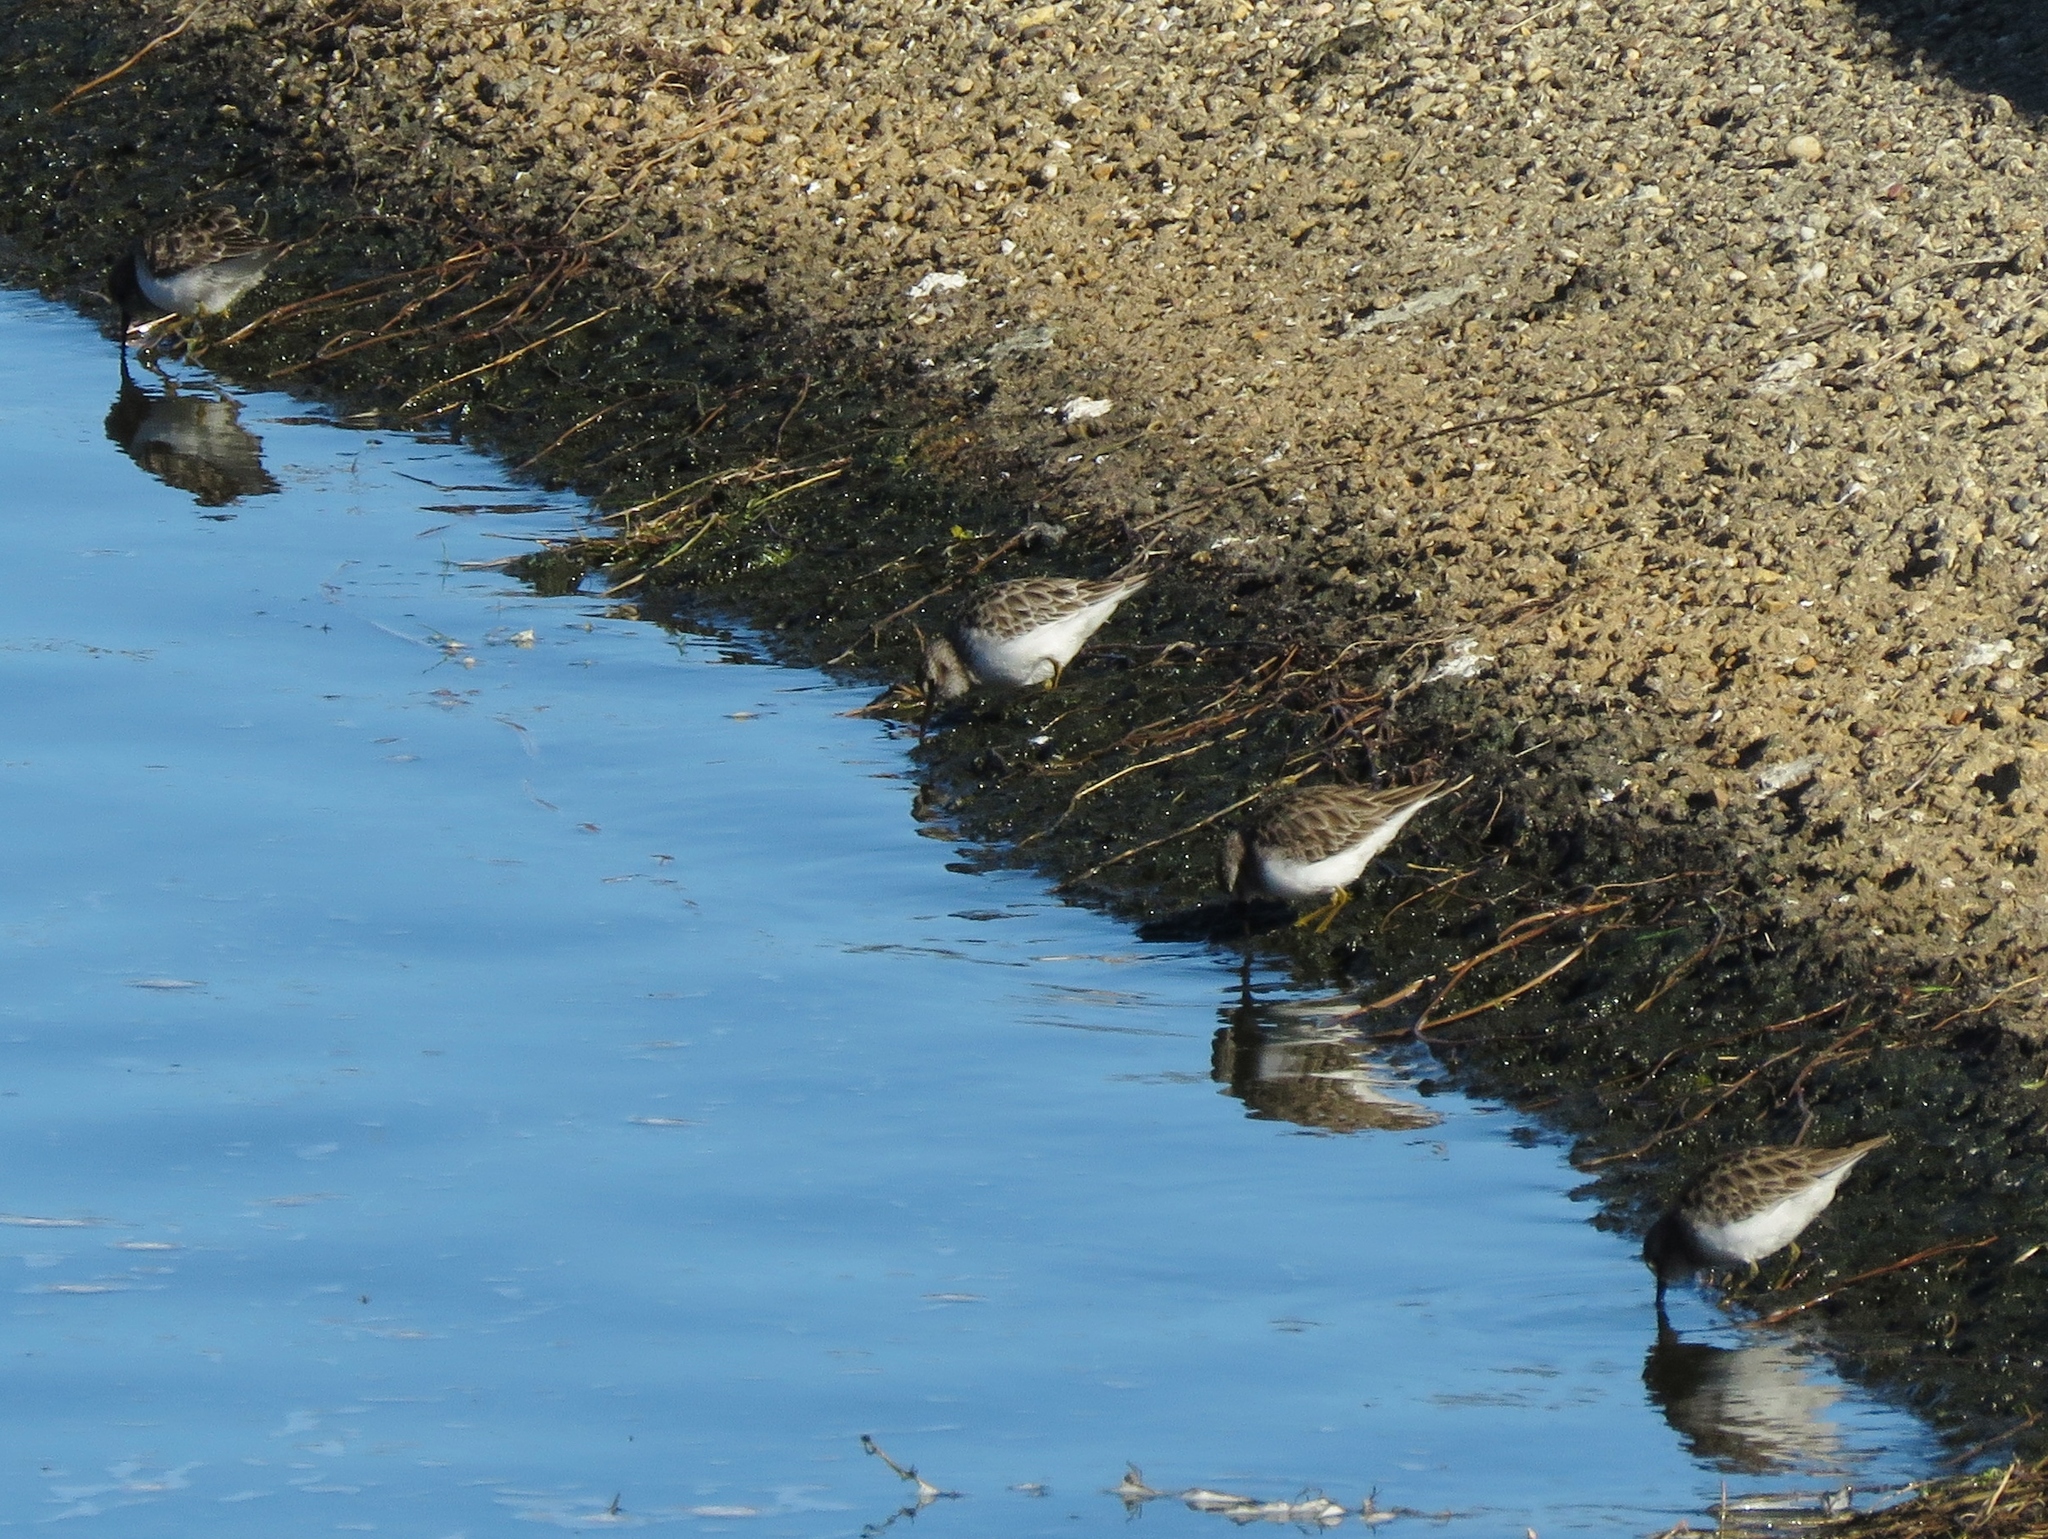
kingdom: Animalia
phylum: Chordata
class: Aves
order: Charadriiformes
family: Scolopacidae
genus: Calidris
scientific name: Calidris minutilla
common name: Least sandpiper
